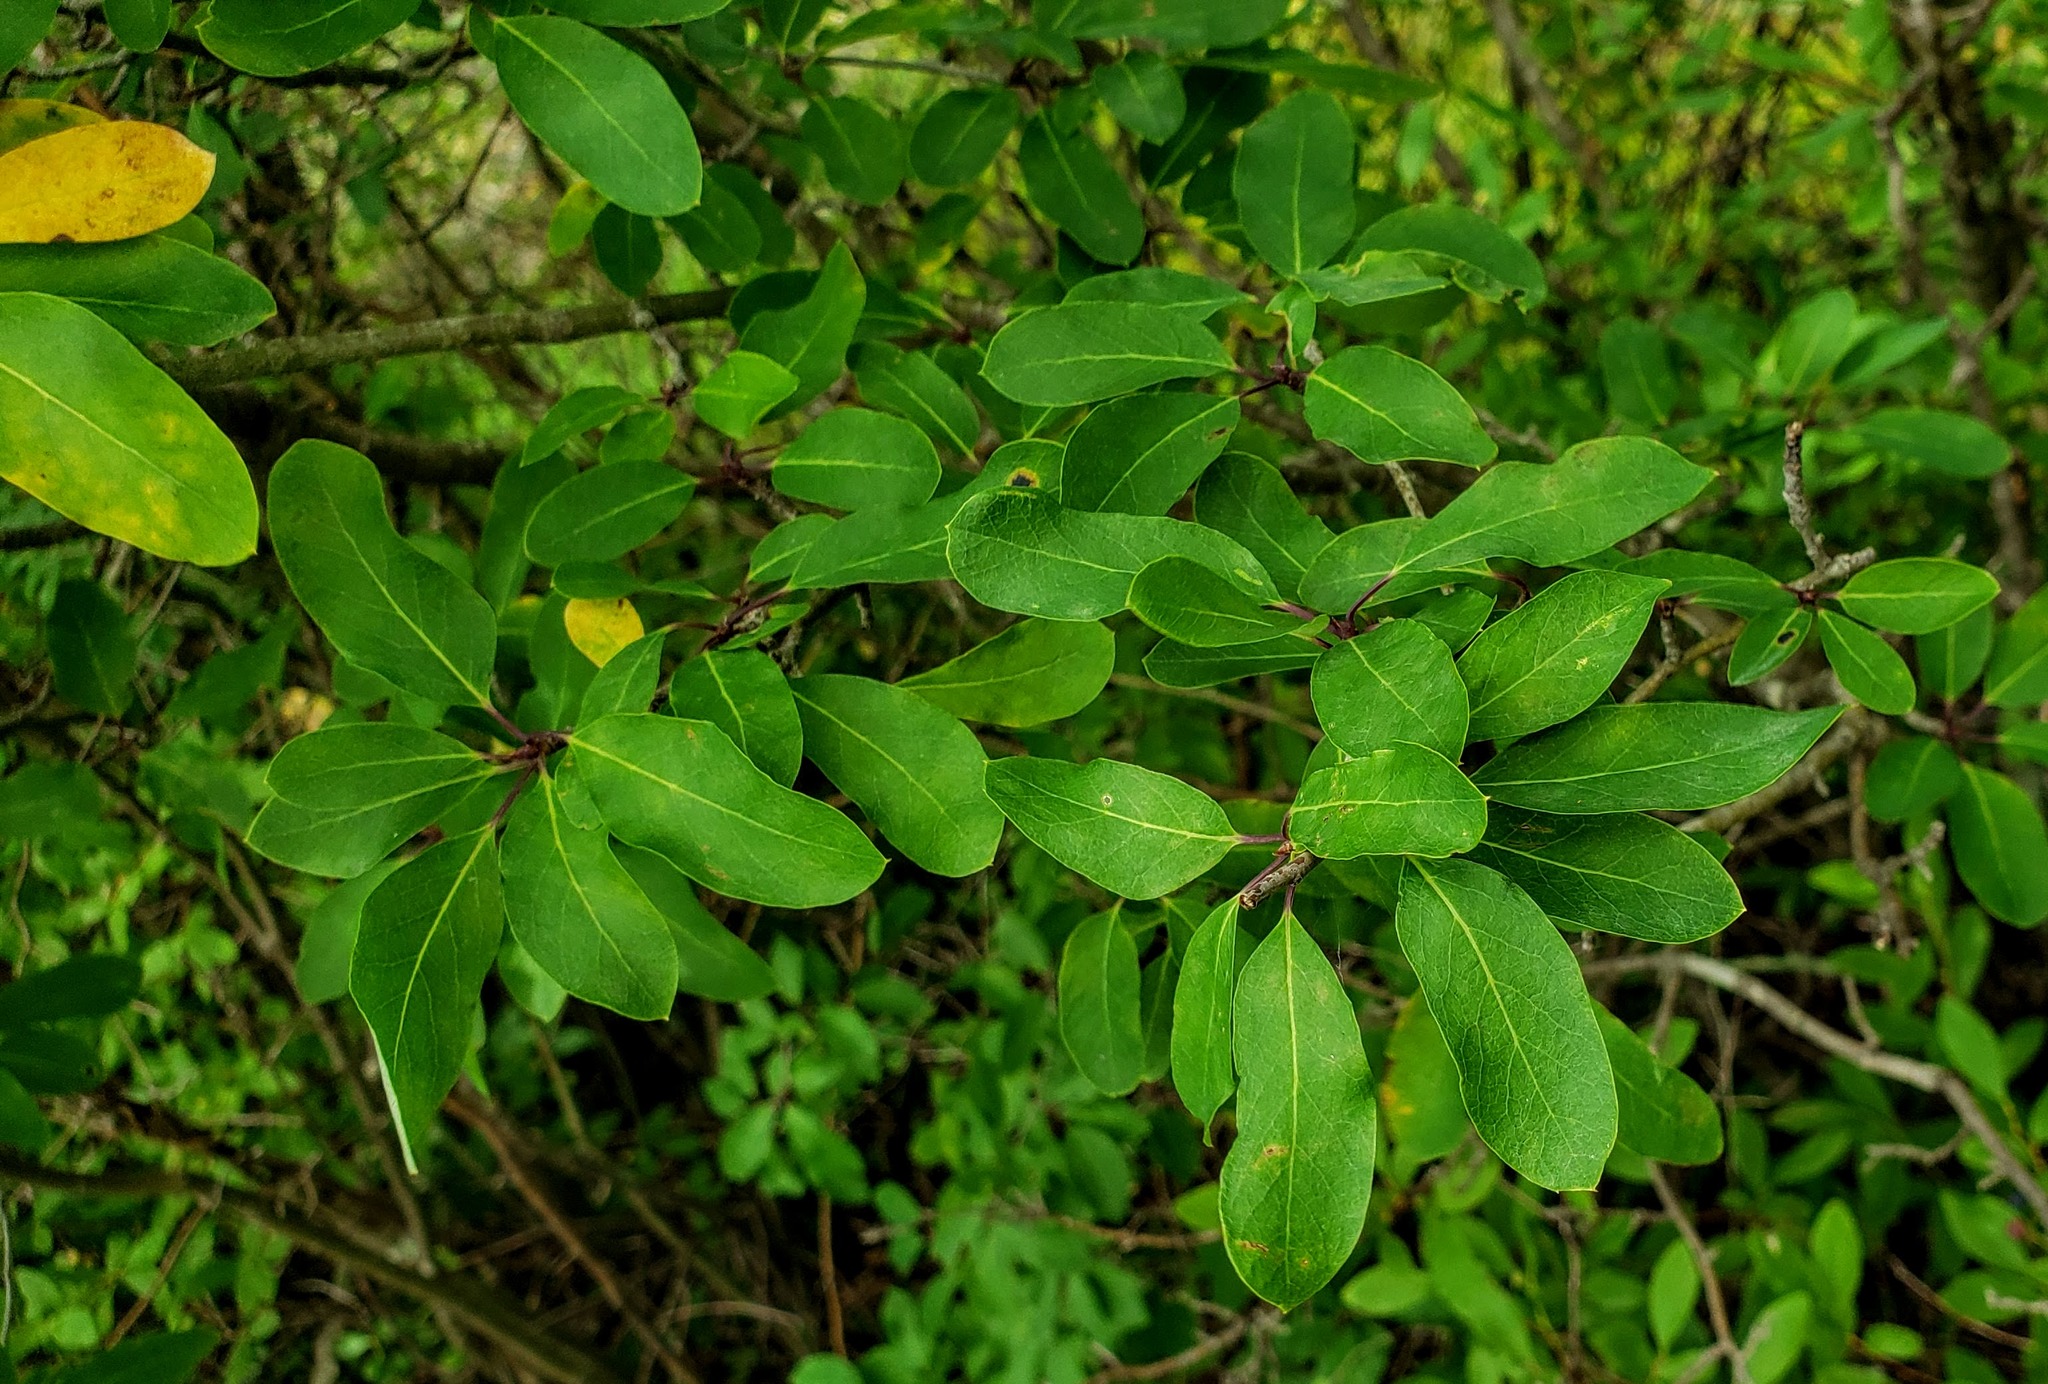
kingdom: Plantae
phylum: Tracheophyta
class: Magnoliopsida
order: Aquifoliales
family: Aquifoliaceae
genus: Ilex
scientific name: Ilex mucronata
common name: Catberry
